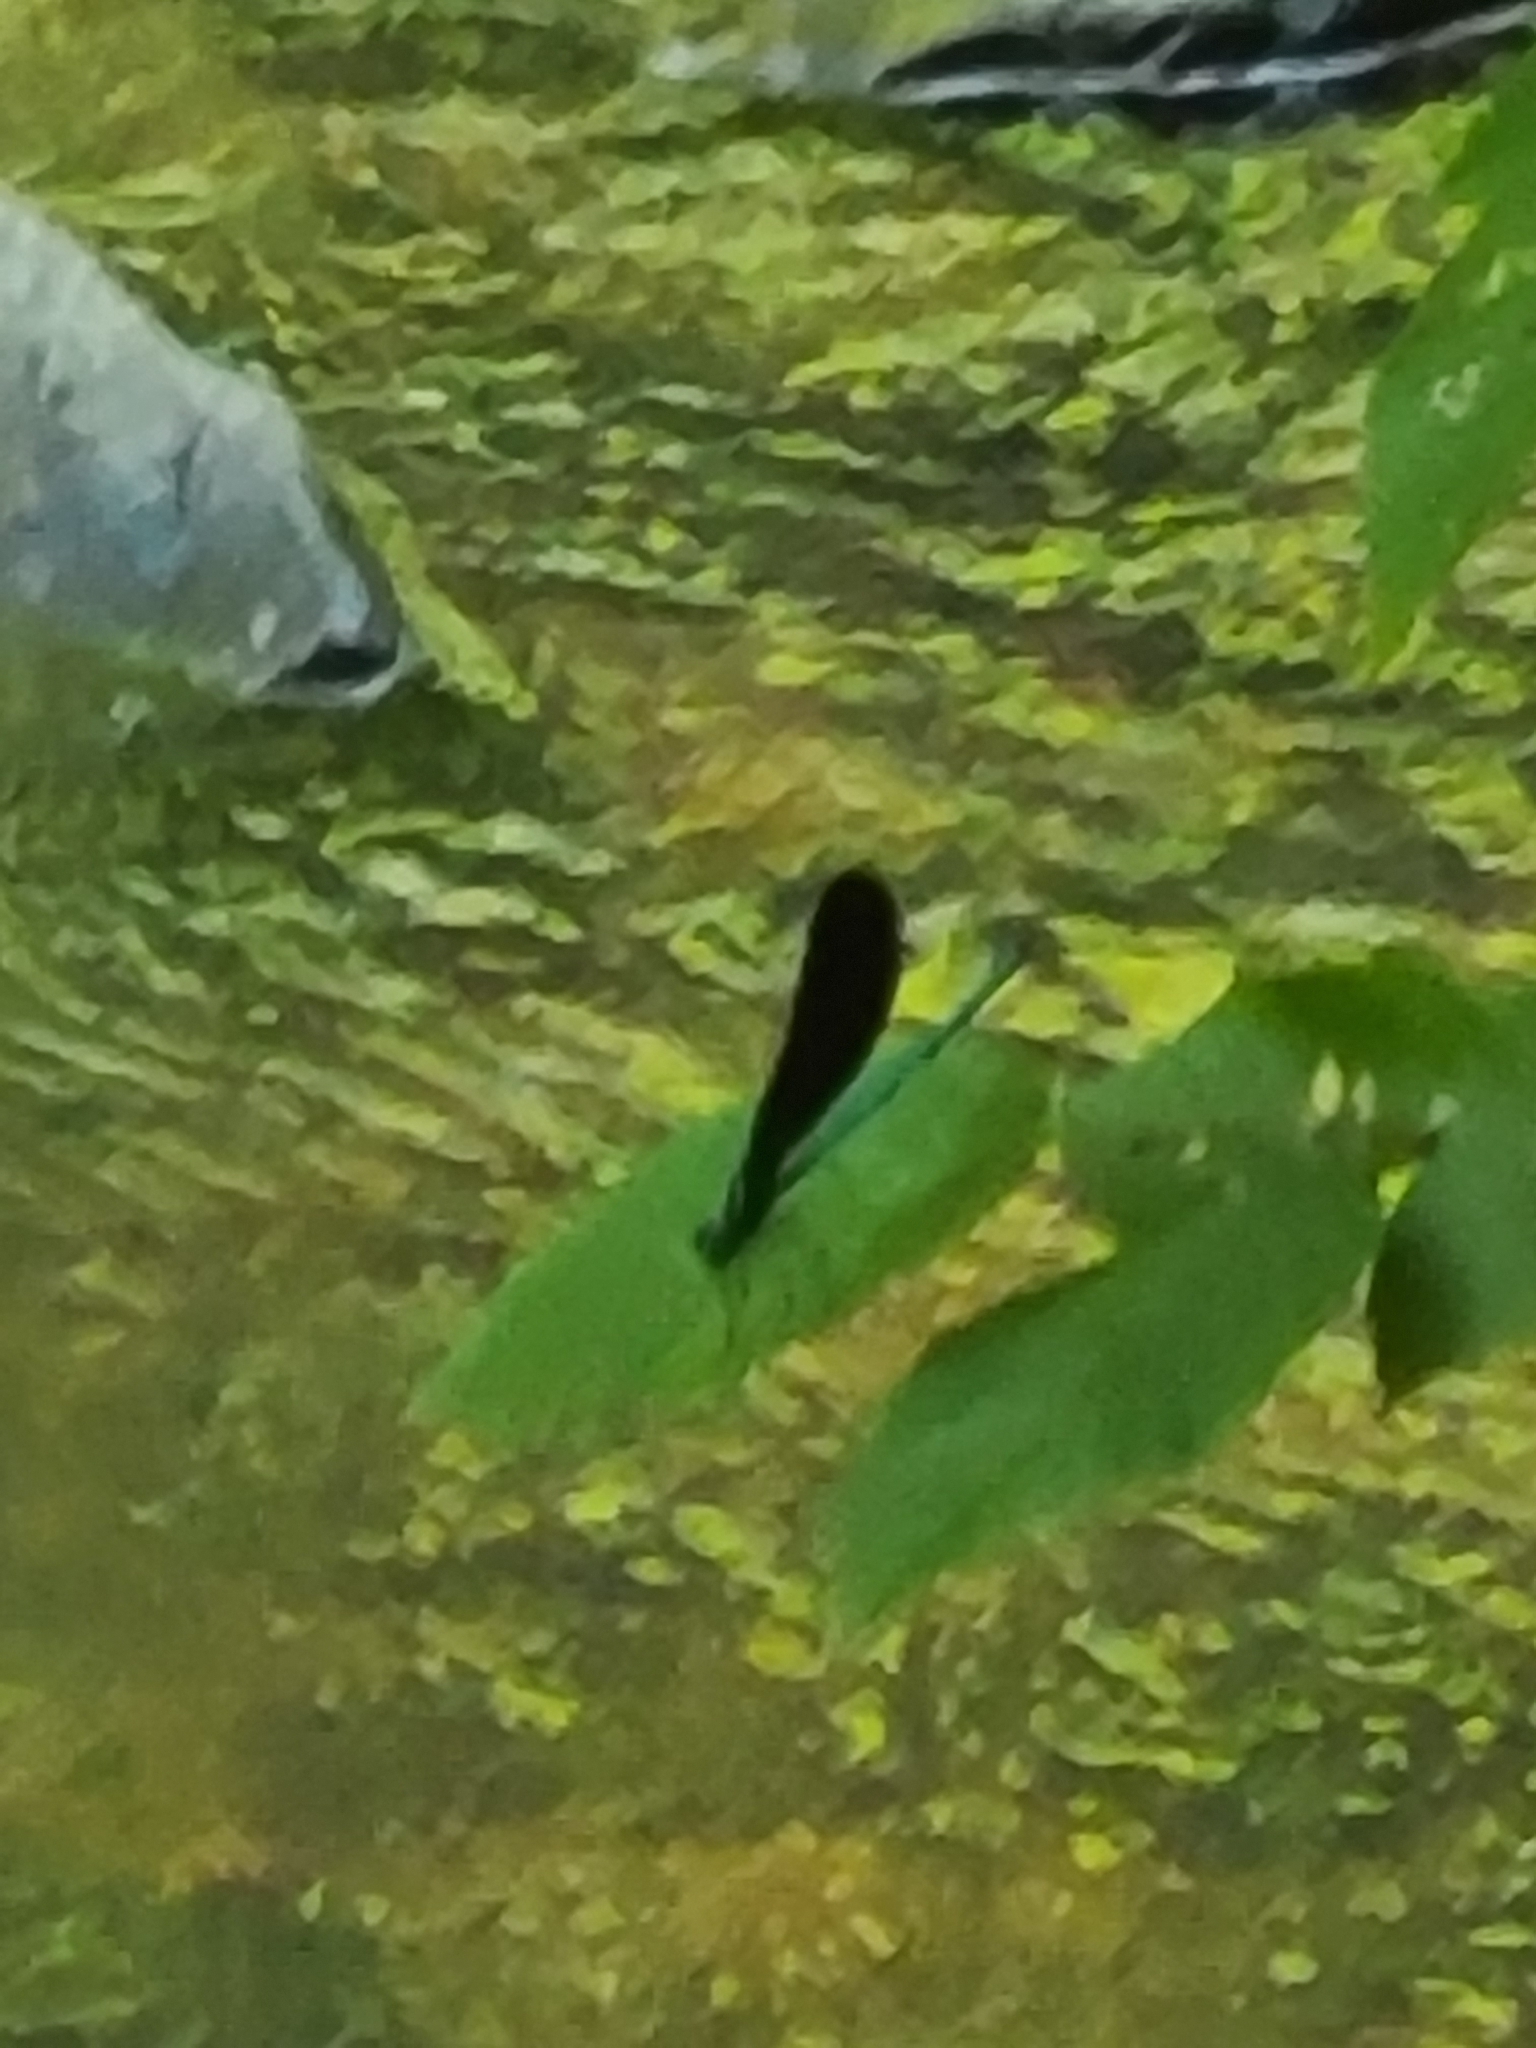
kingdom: Animalia
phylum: Arthropoda
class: Insecta
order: Odonata
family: Calopterygidae
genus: Calopteryx
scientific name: Calopteryx maculata
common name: Ebony jewelwing
